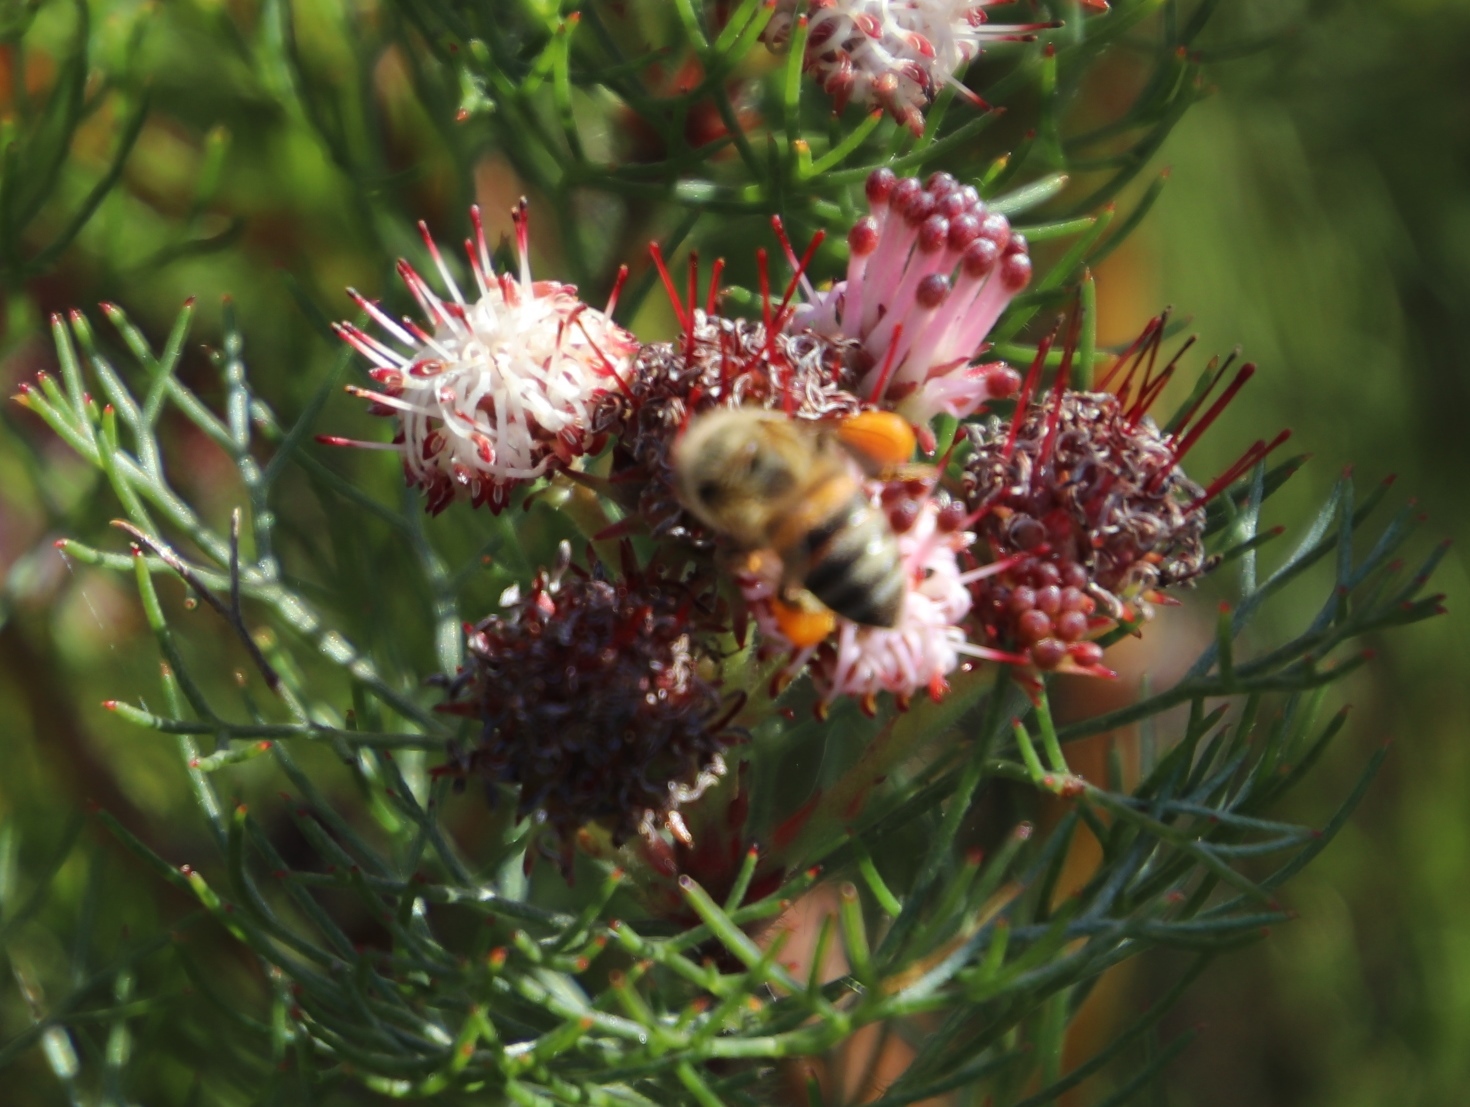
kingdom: Plantae
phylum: Tracheophyta
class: Magnoliopsida
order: Proteales
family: Proteaceae
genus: Serruria
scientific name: Serruria fasciflora
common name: Common pin spiderhead
